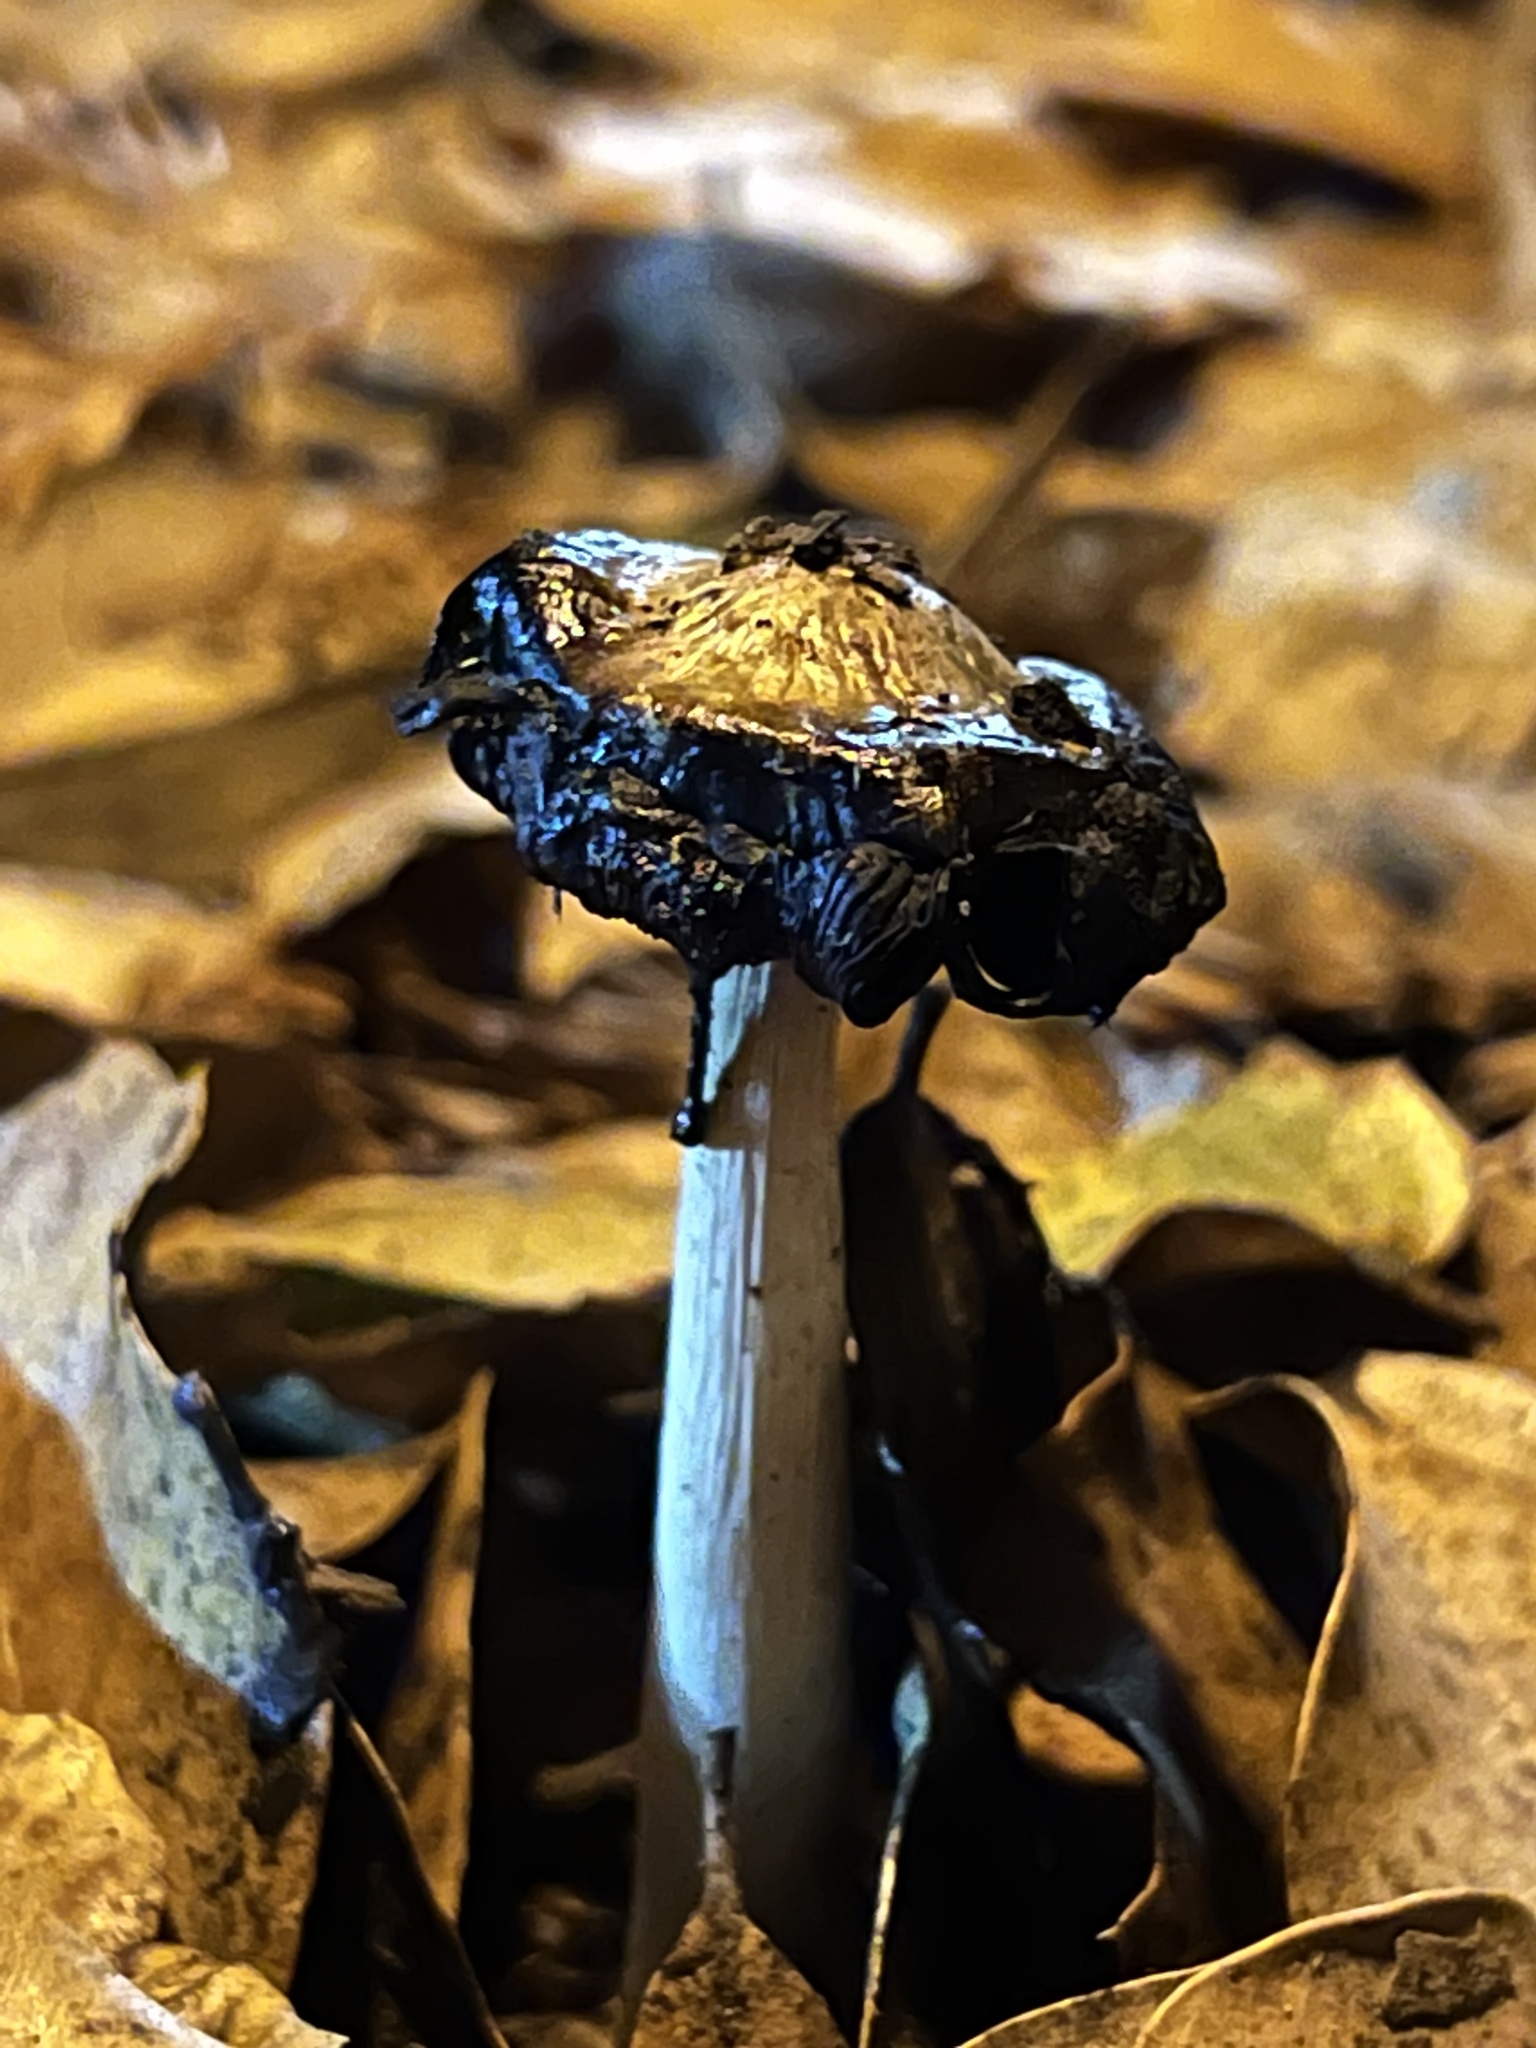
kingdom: Fungi
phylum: Basidiomycota
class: Agaricomycetes
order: Agaricales
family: Agaricaceae
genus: Coprinus
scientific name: Coprinus comatus
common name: Lawyer's wig
